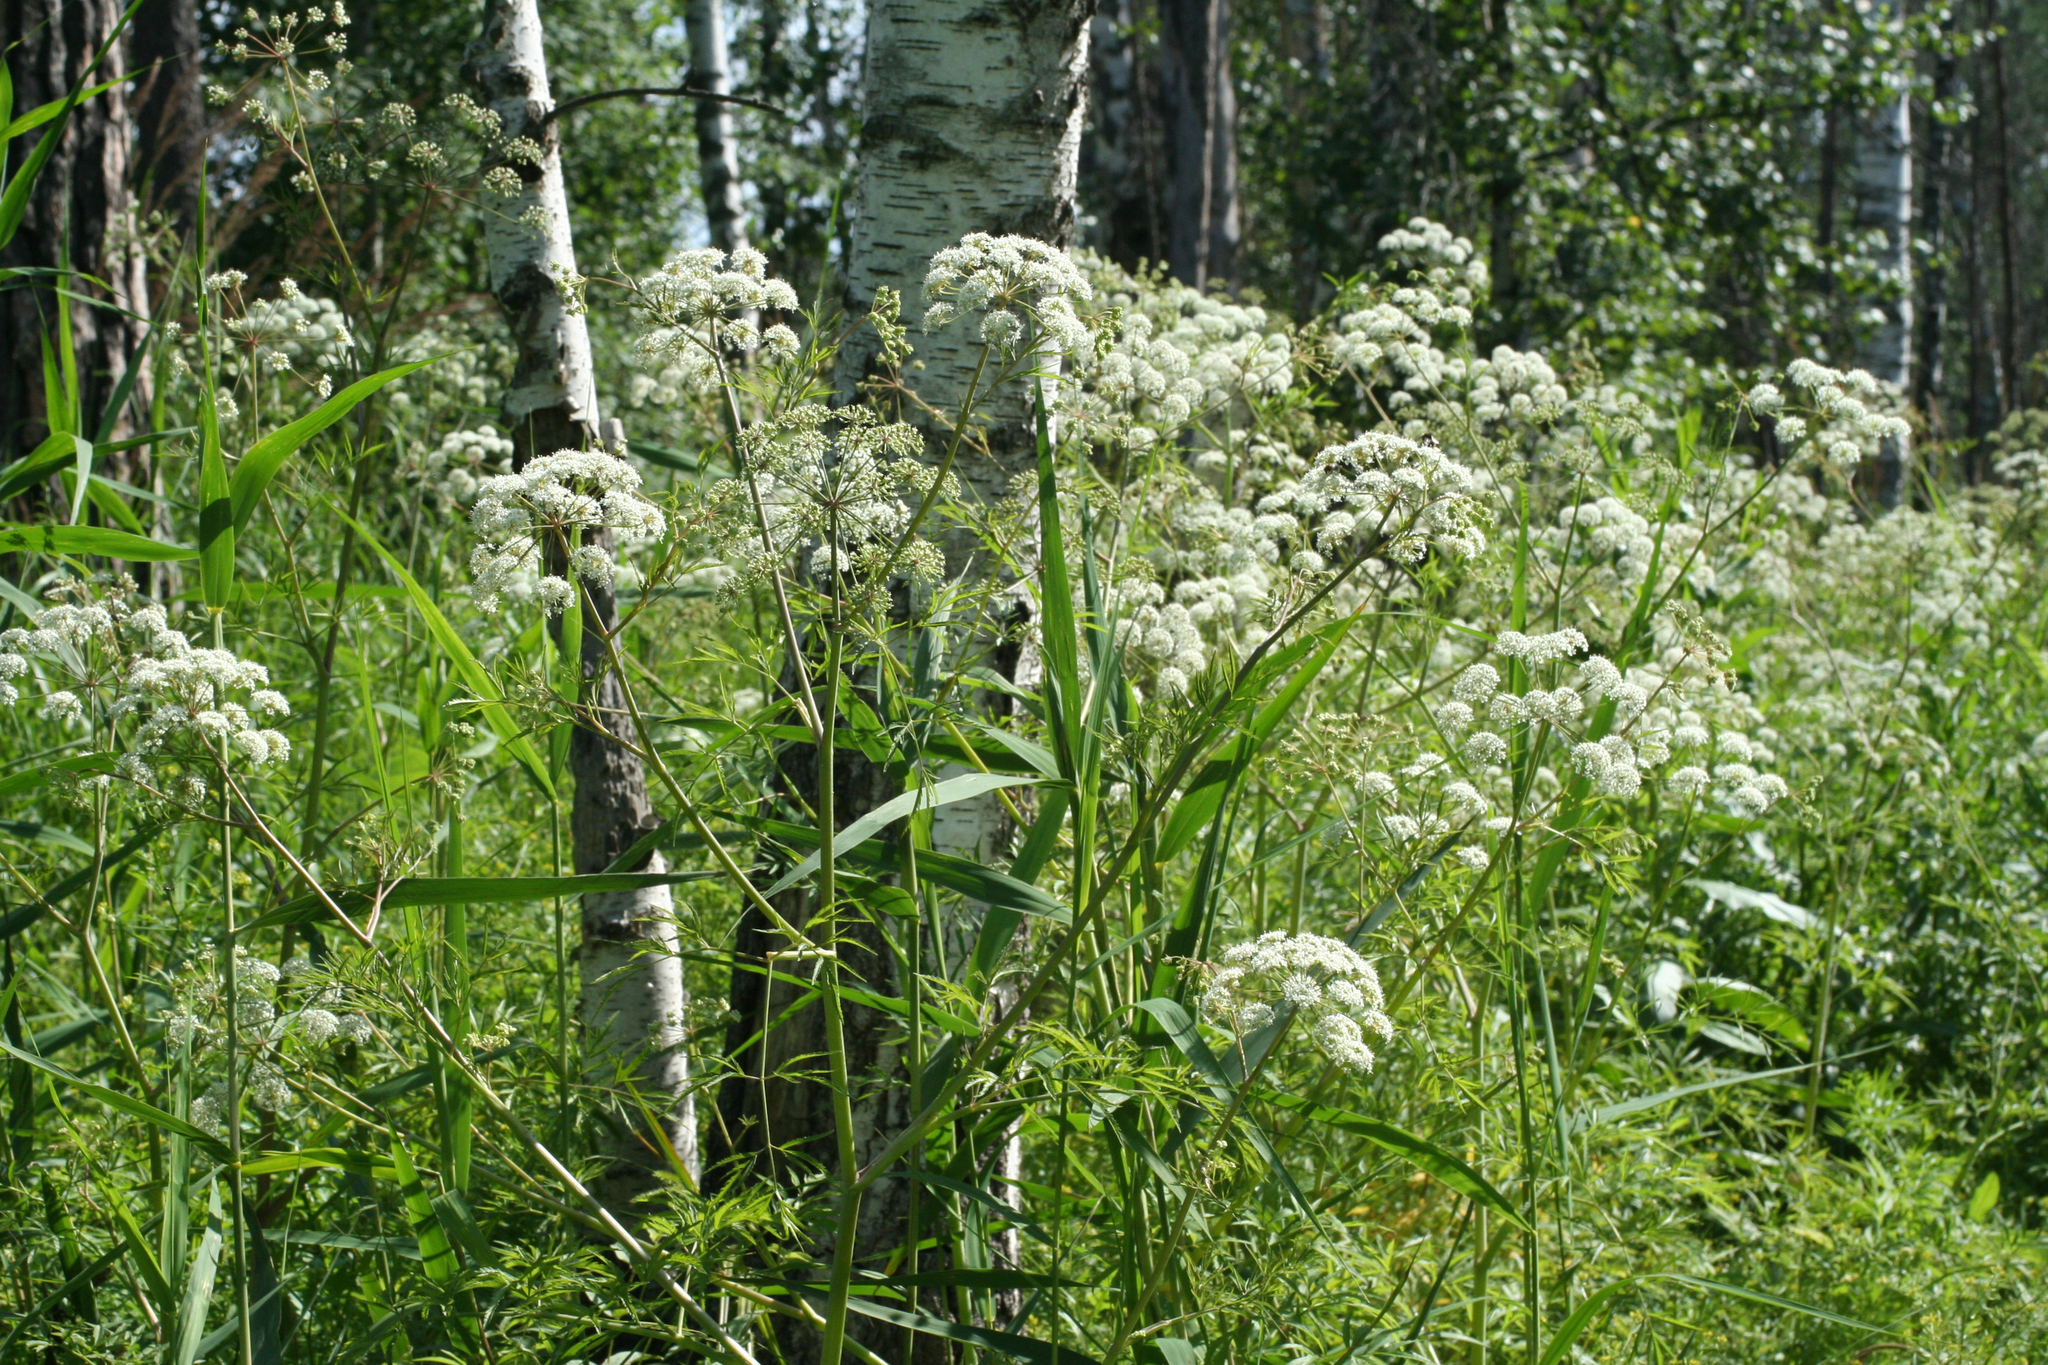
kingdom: Plantae
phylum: Tracheophyta
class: Magnoliopsida
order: Apiales
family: Apiaceae
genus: Cicuta
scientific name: Cicuta virosa
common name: Cowbane
